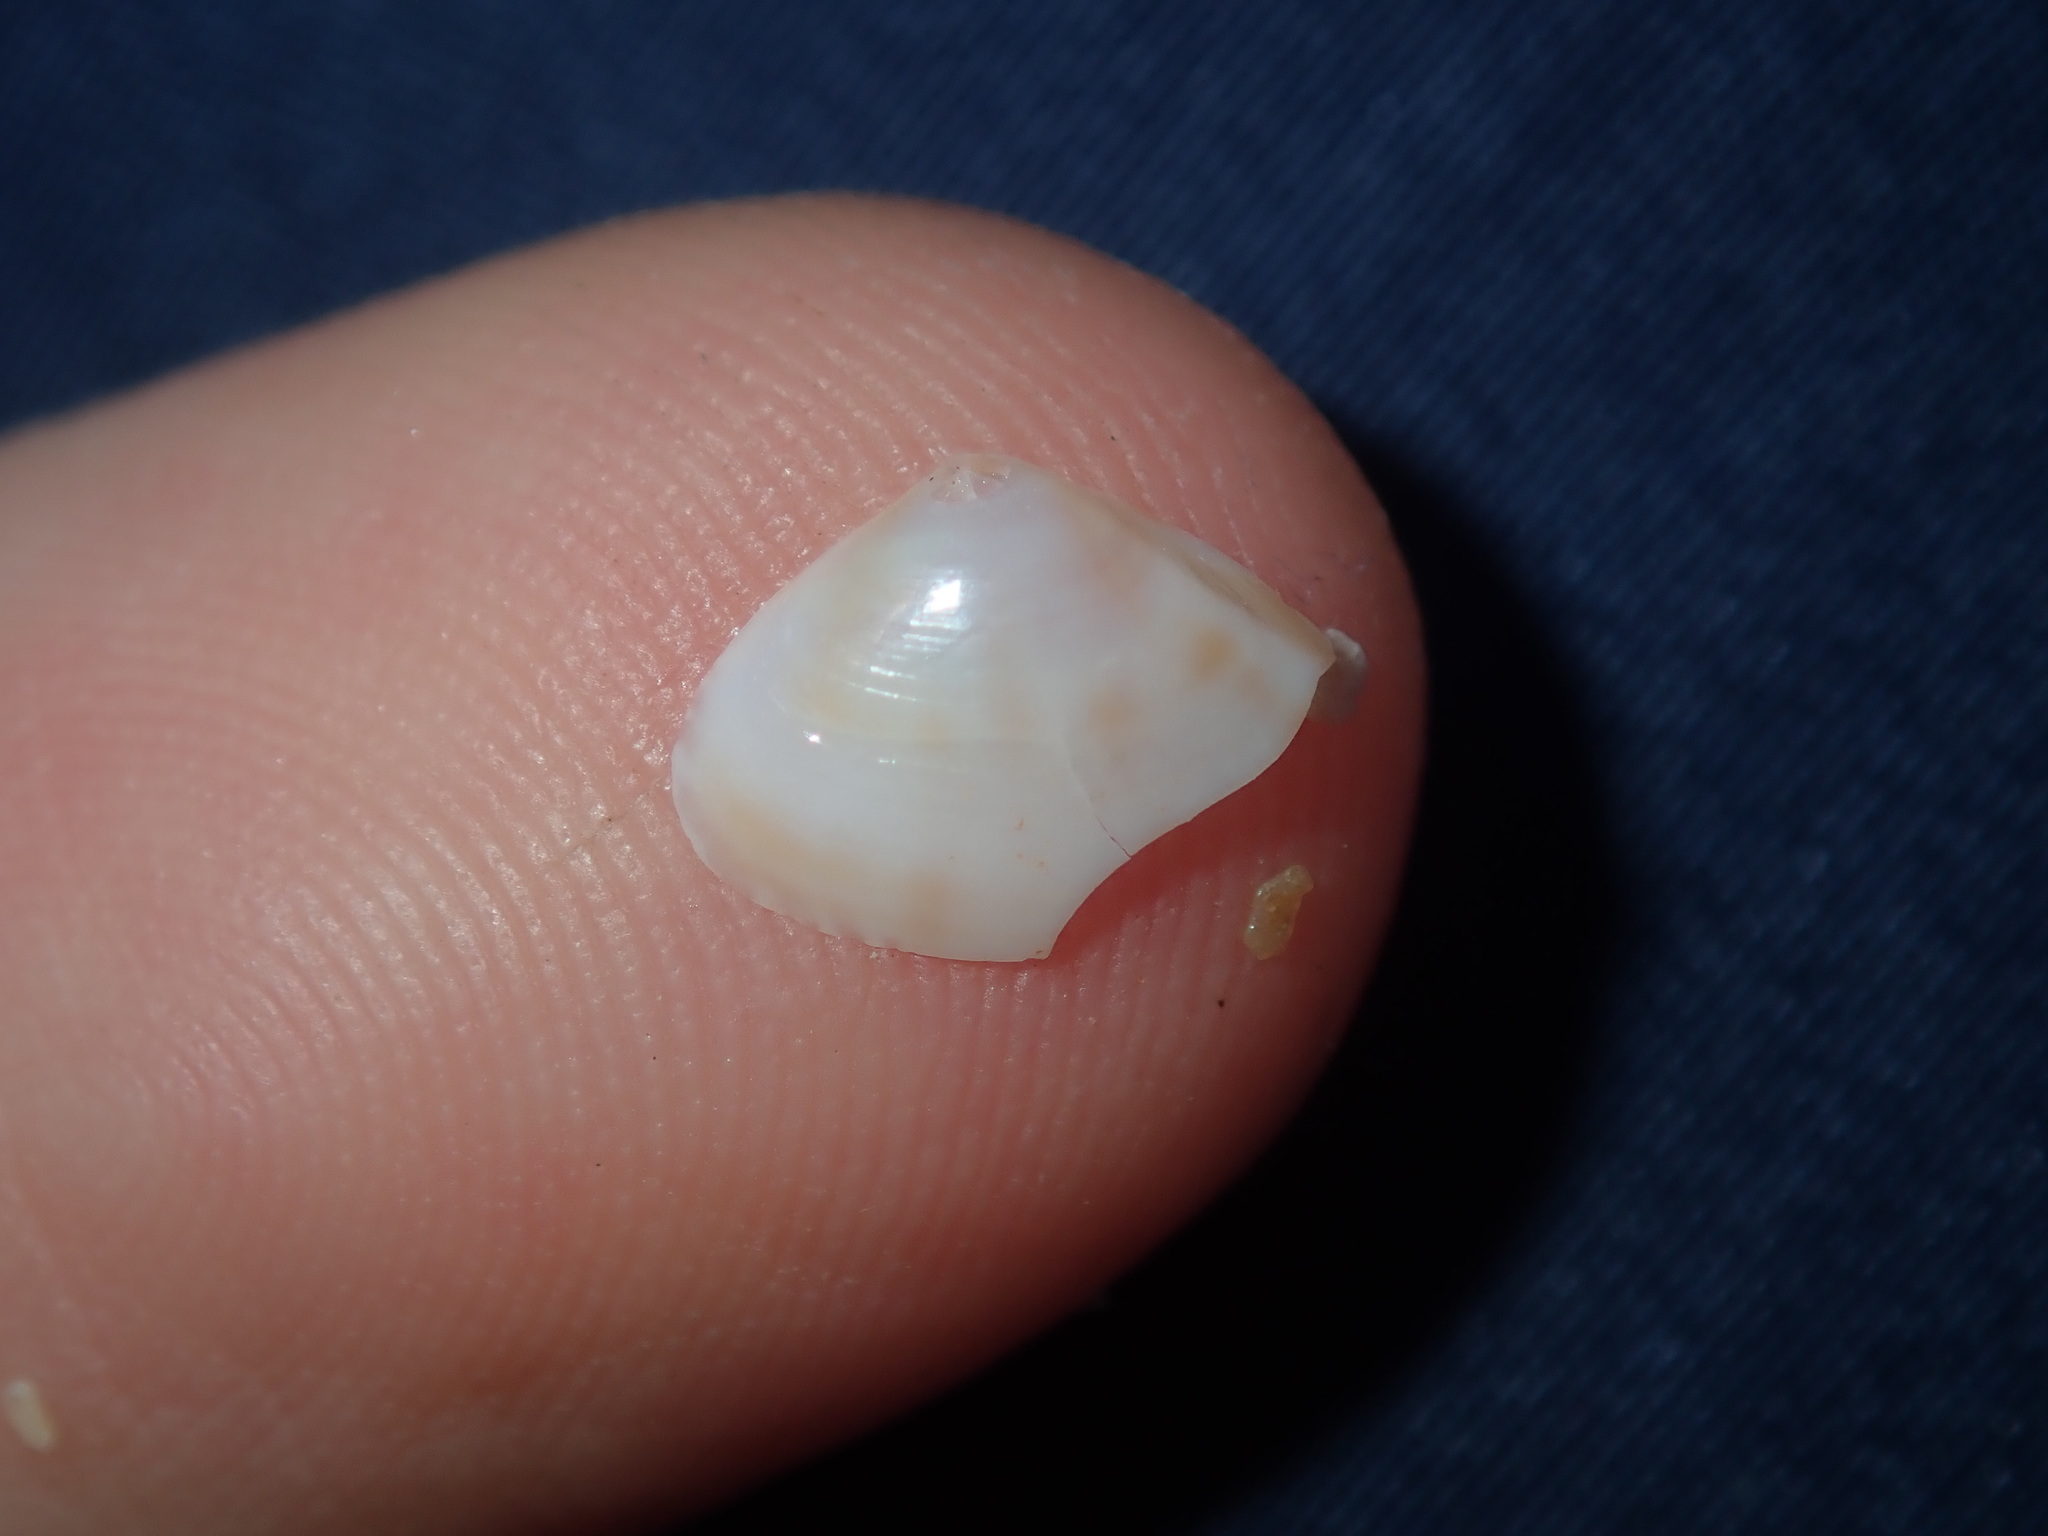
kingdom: Animalia
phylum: Mollusca
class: Bivalvia
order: Venerida
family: Mactridae
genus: Mactra
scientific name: Mactra pusilla
